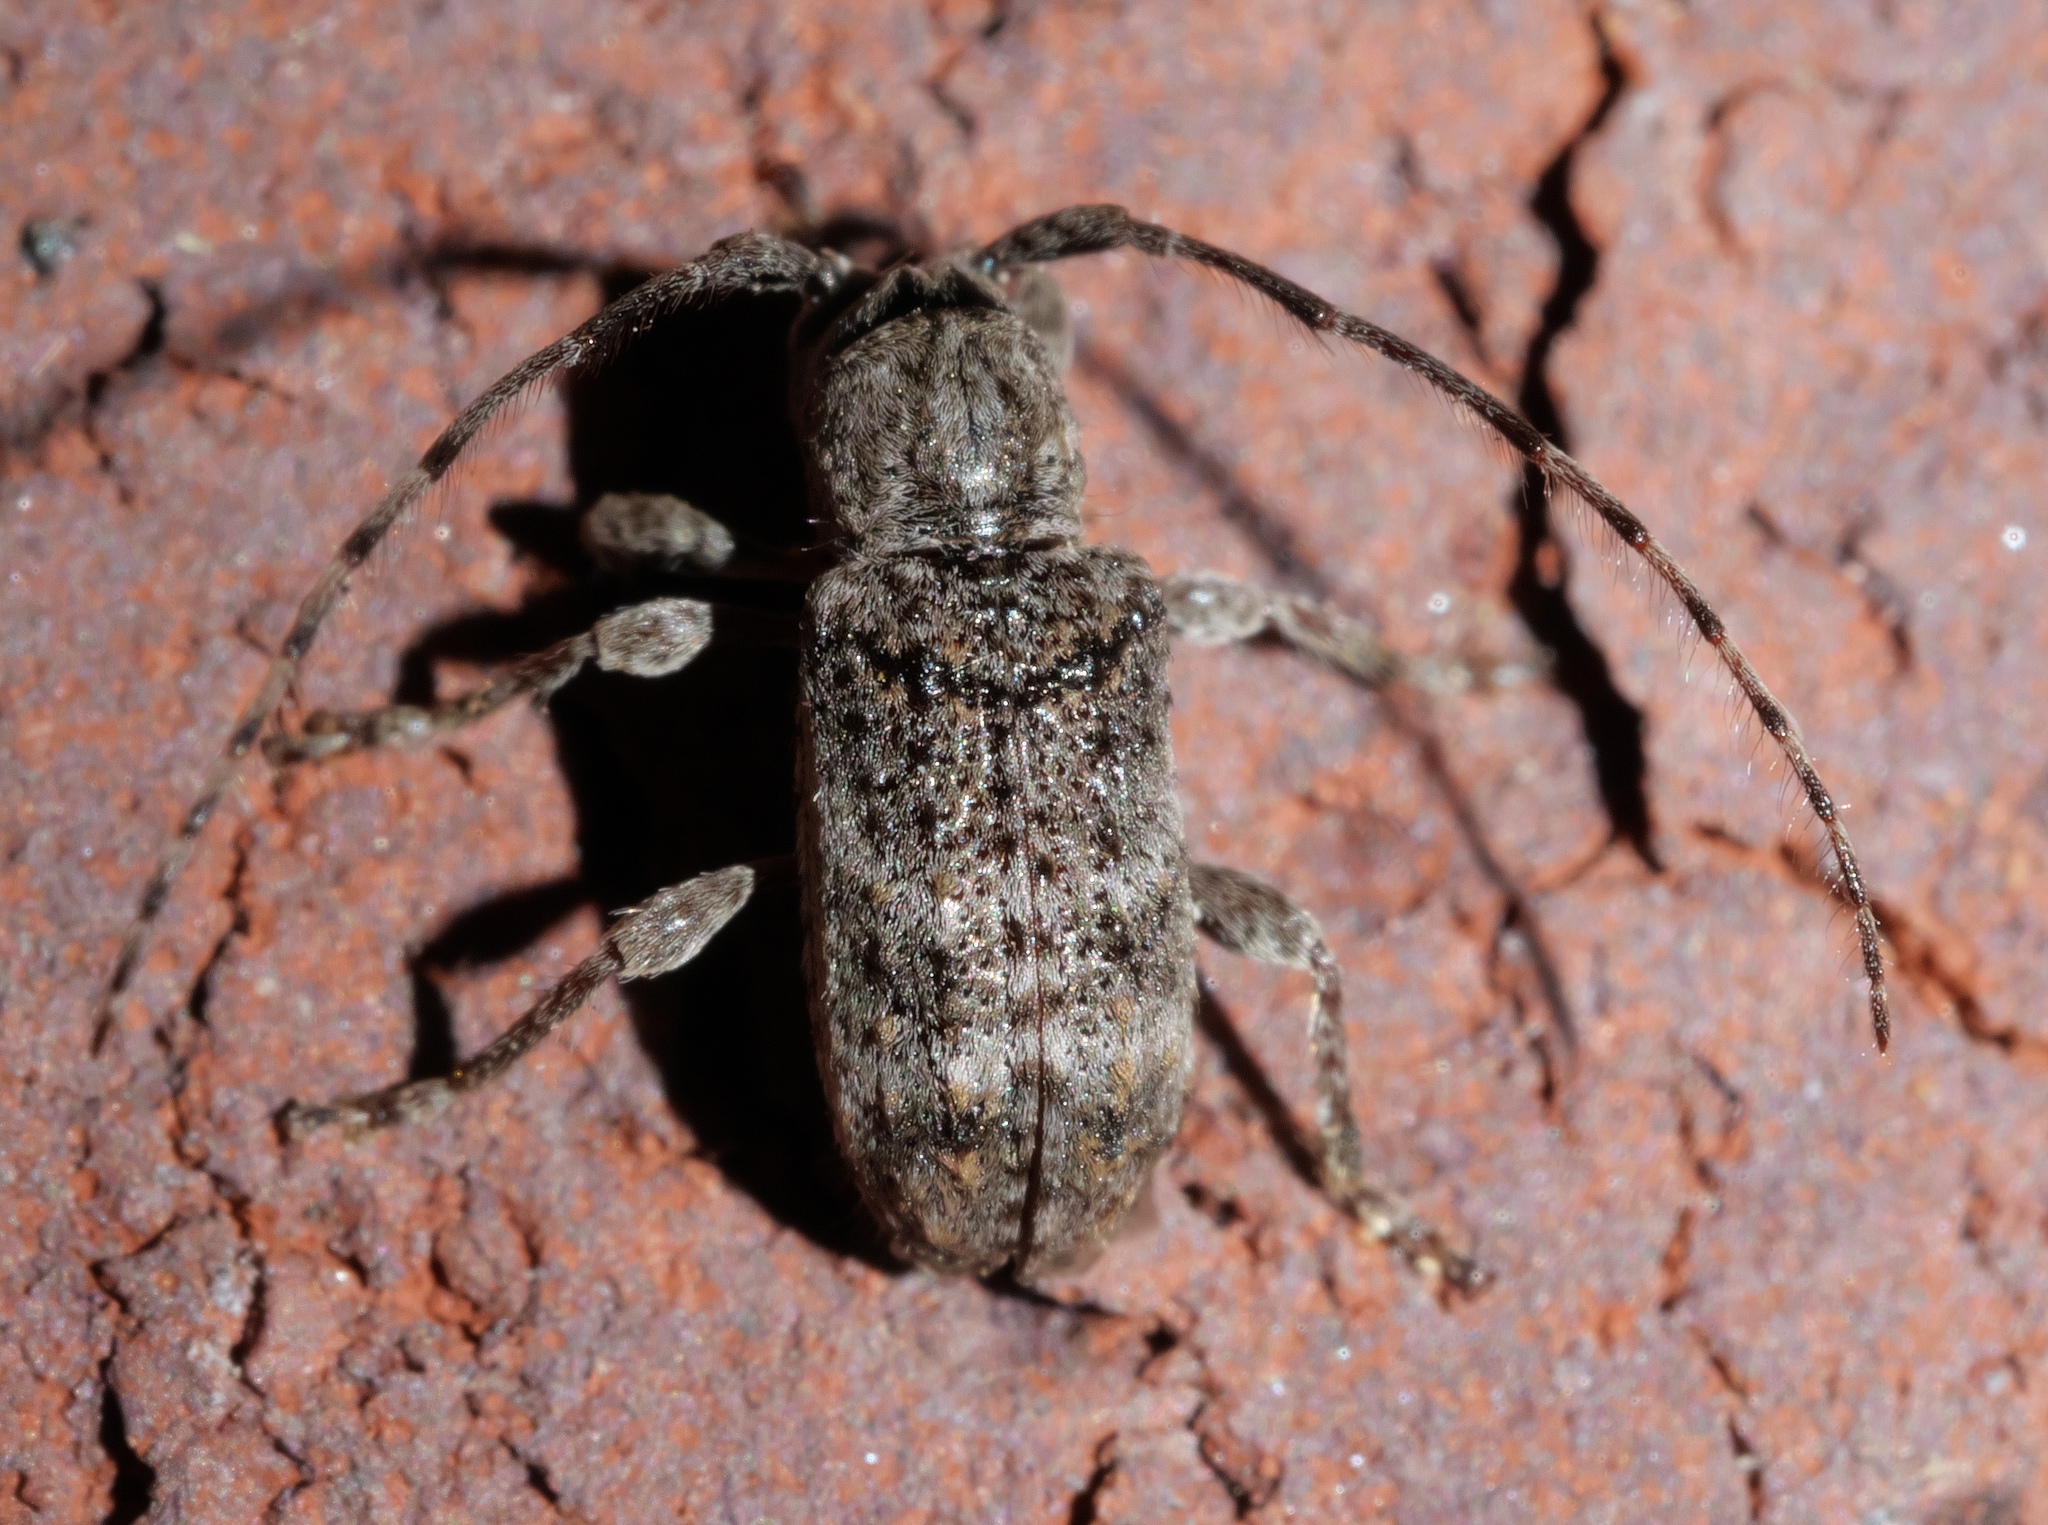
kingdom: Animalia
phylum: Arthropoda
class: Insecta
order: Coleoptera
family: Cerambycidae
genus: Ecyrus
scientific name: Ecyrus dasycerus
